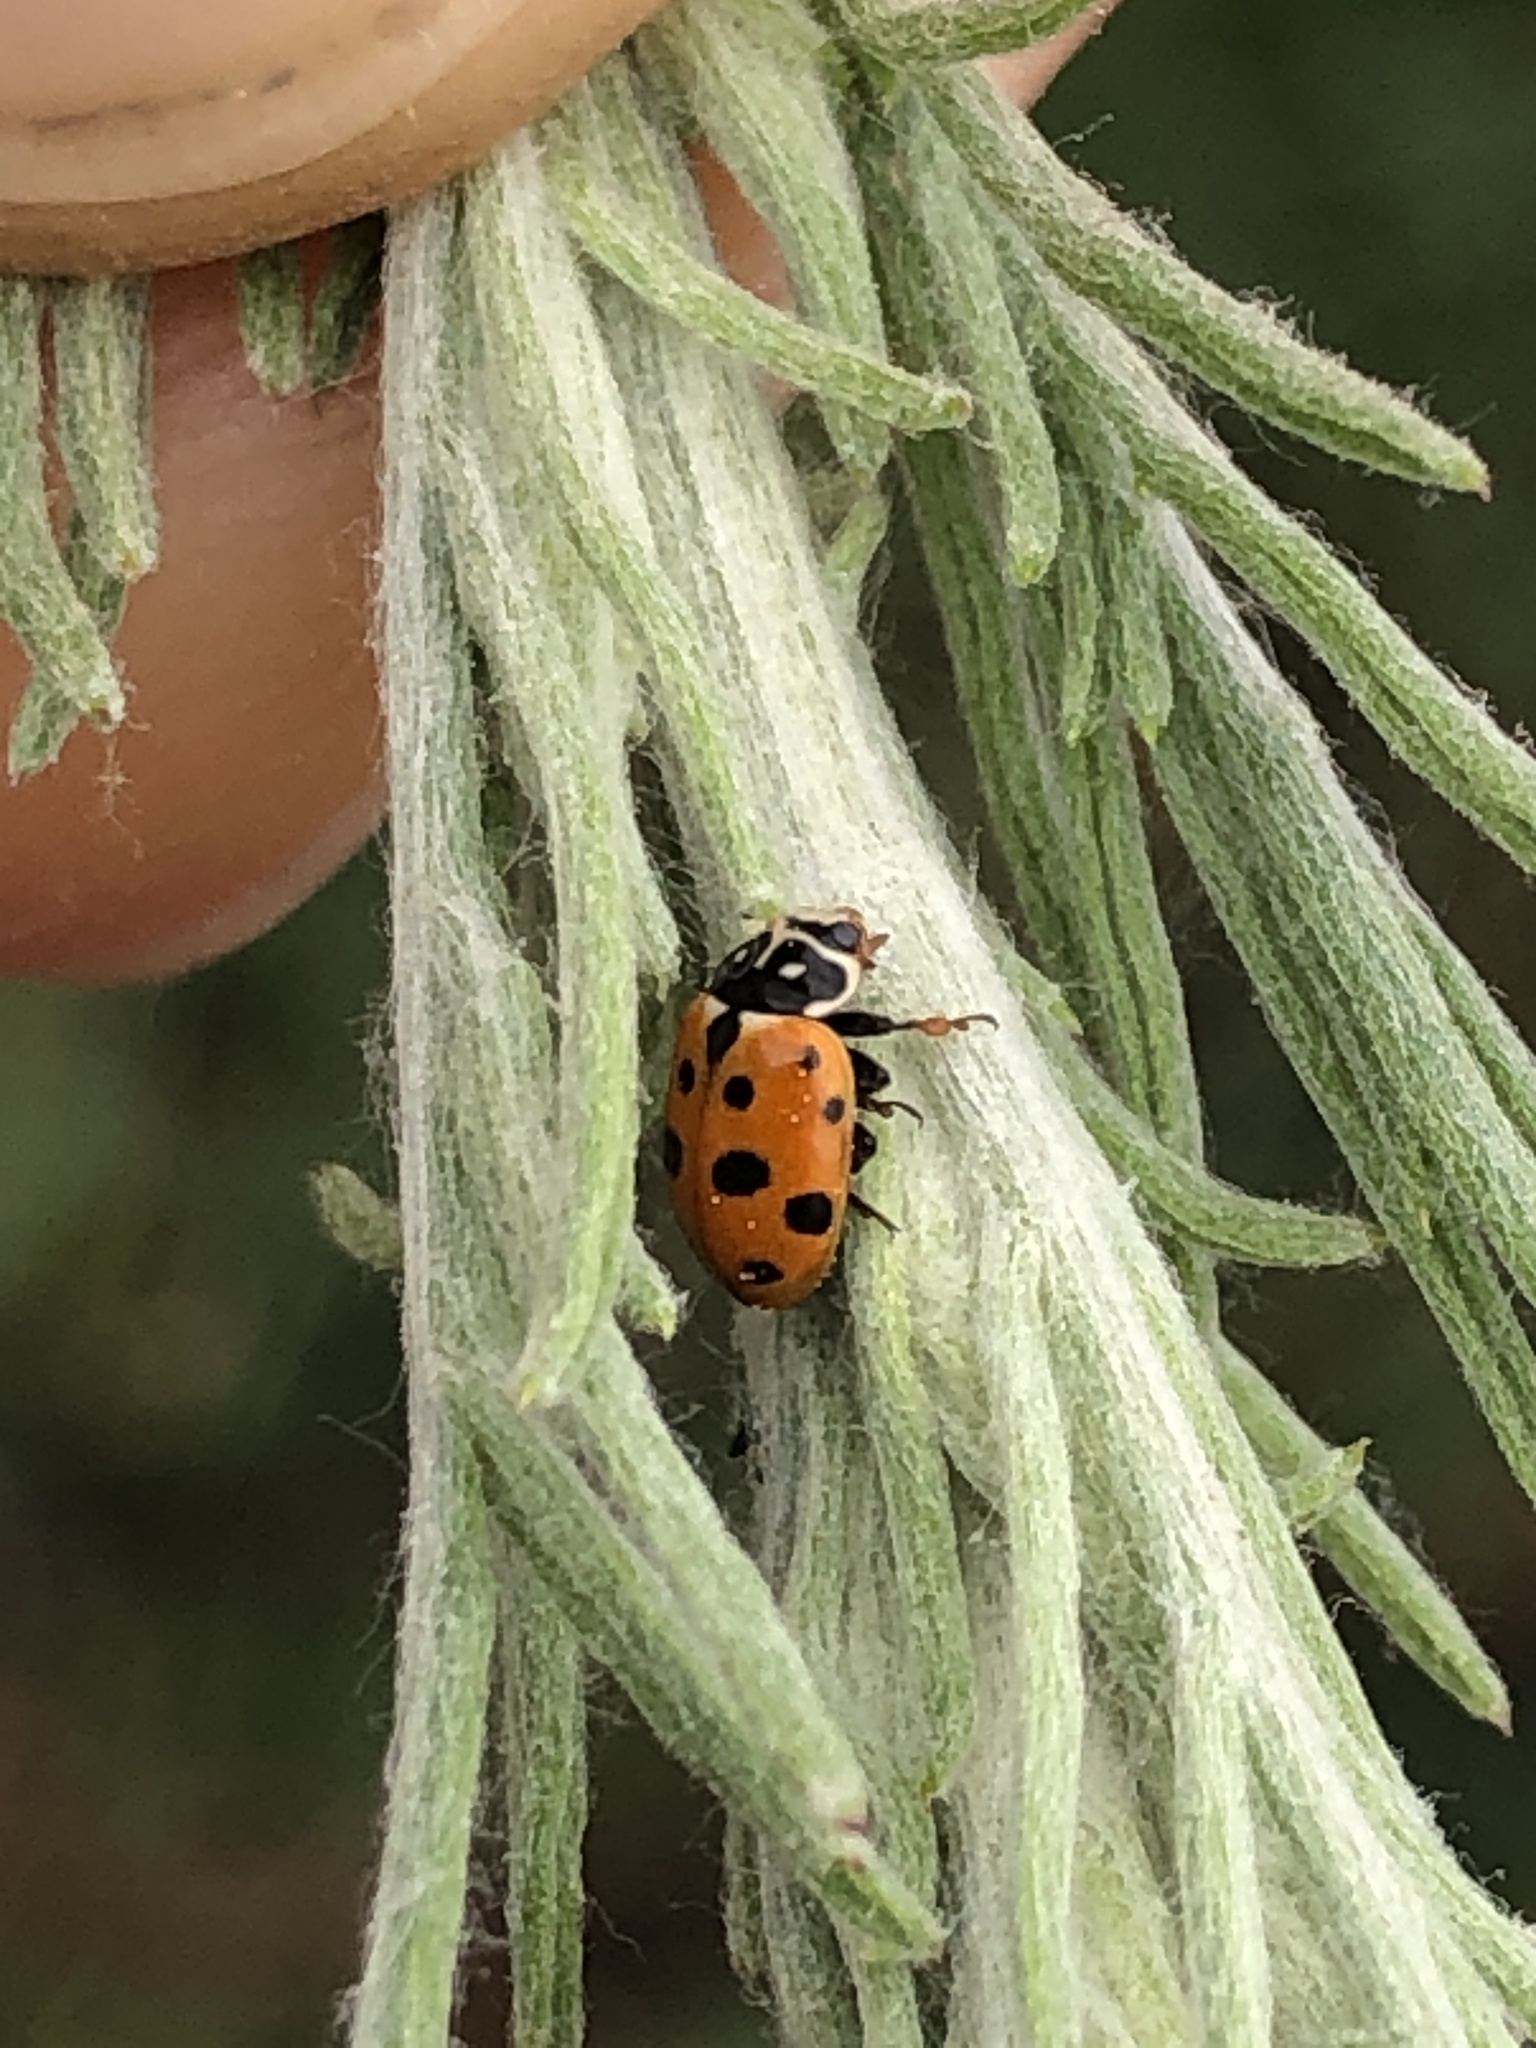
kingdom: Animalia
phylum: Arthropoda
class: Insecta
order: Coleoptera
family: Coccinellidae
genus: Hippodamia
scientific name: Hippodamia variegata
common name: Ladybird beetle
